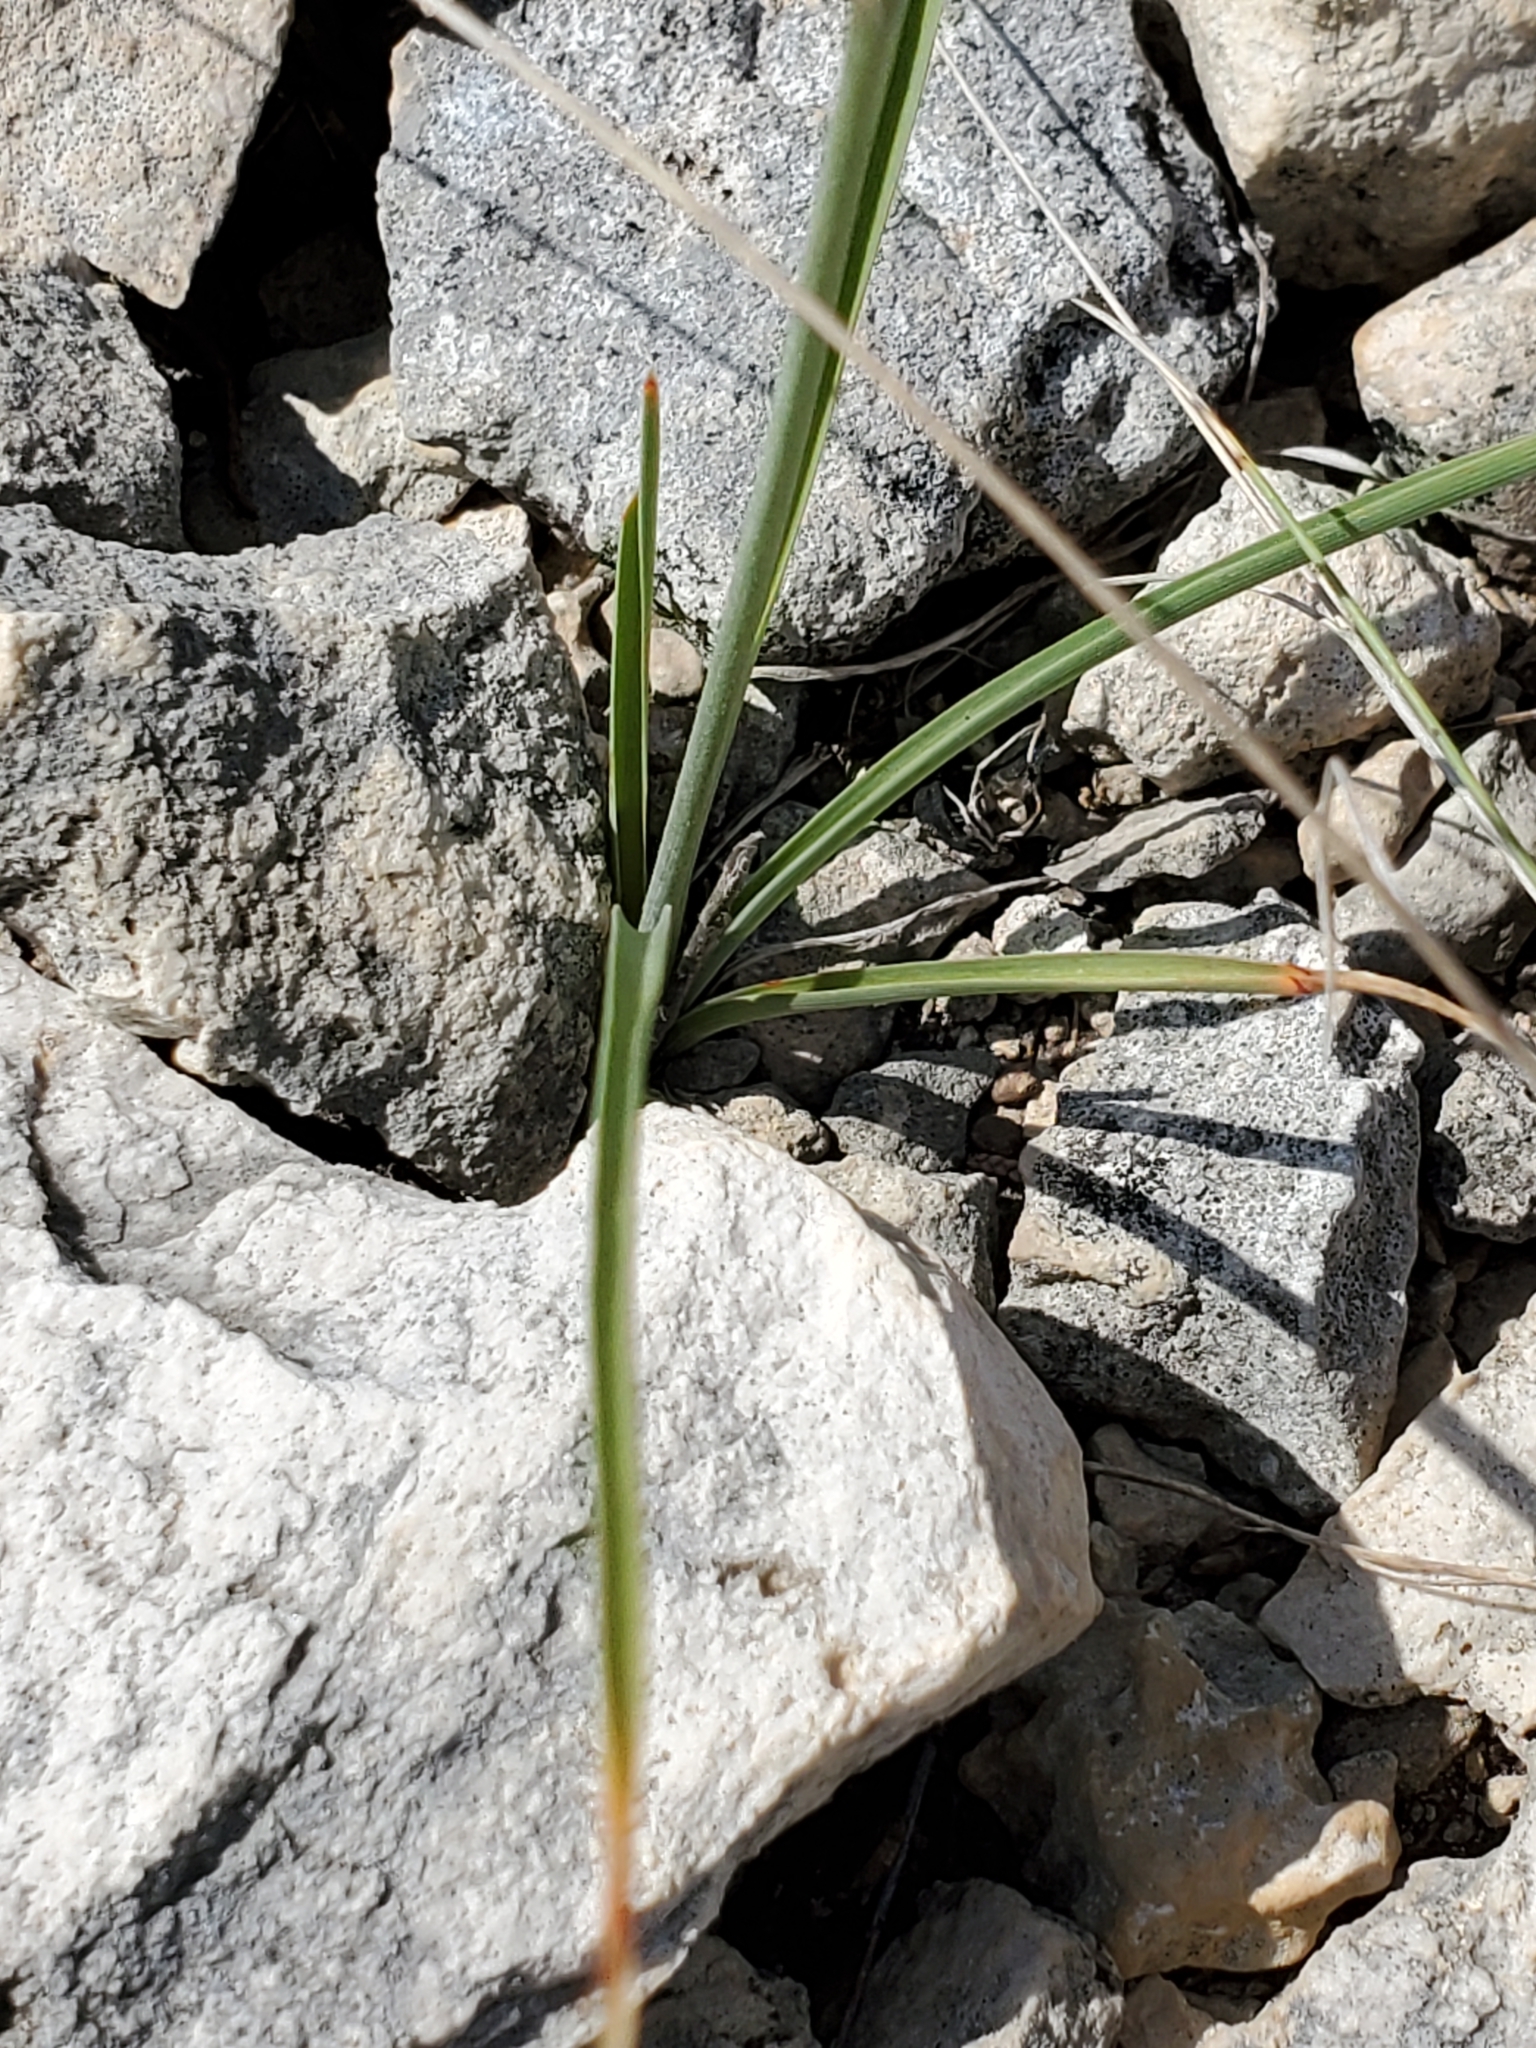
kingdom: Plantae
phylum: Tracheophyta
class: Liliopsida
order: Asparagales
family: Asparagaceae
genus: Echeandia
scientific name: Echeandia flavescens
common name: Amberlily
